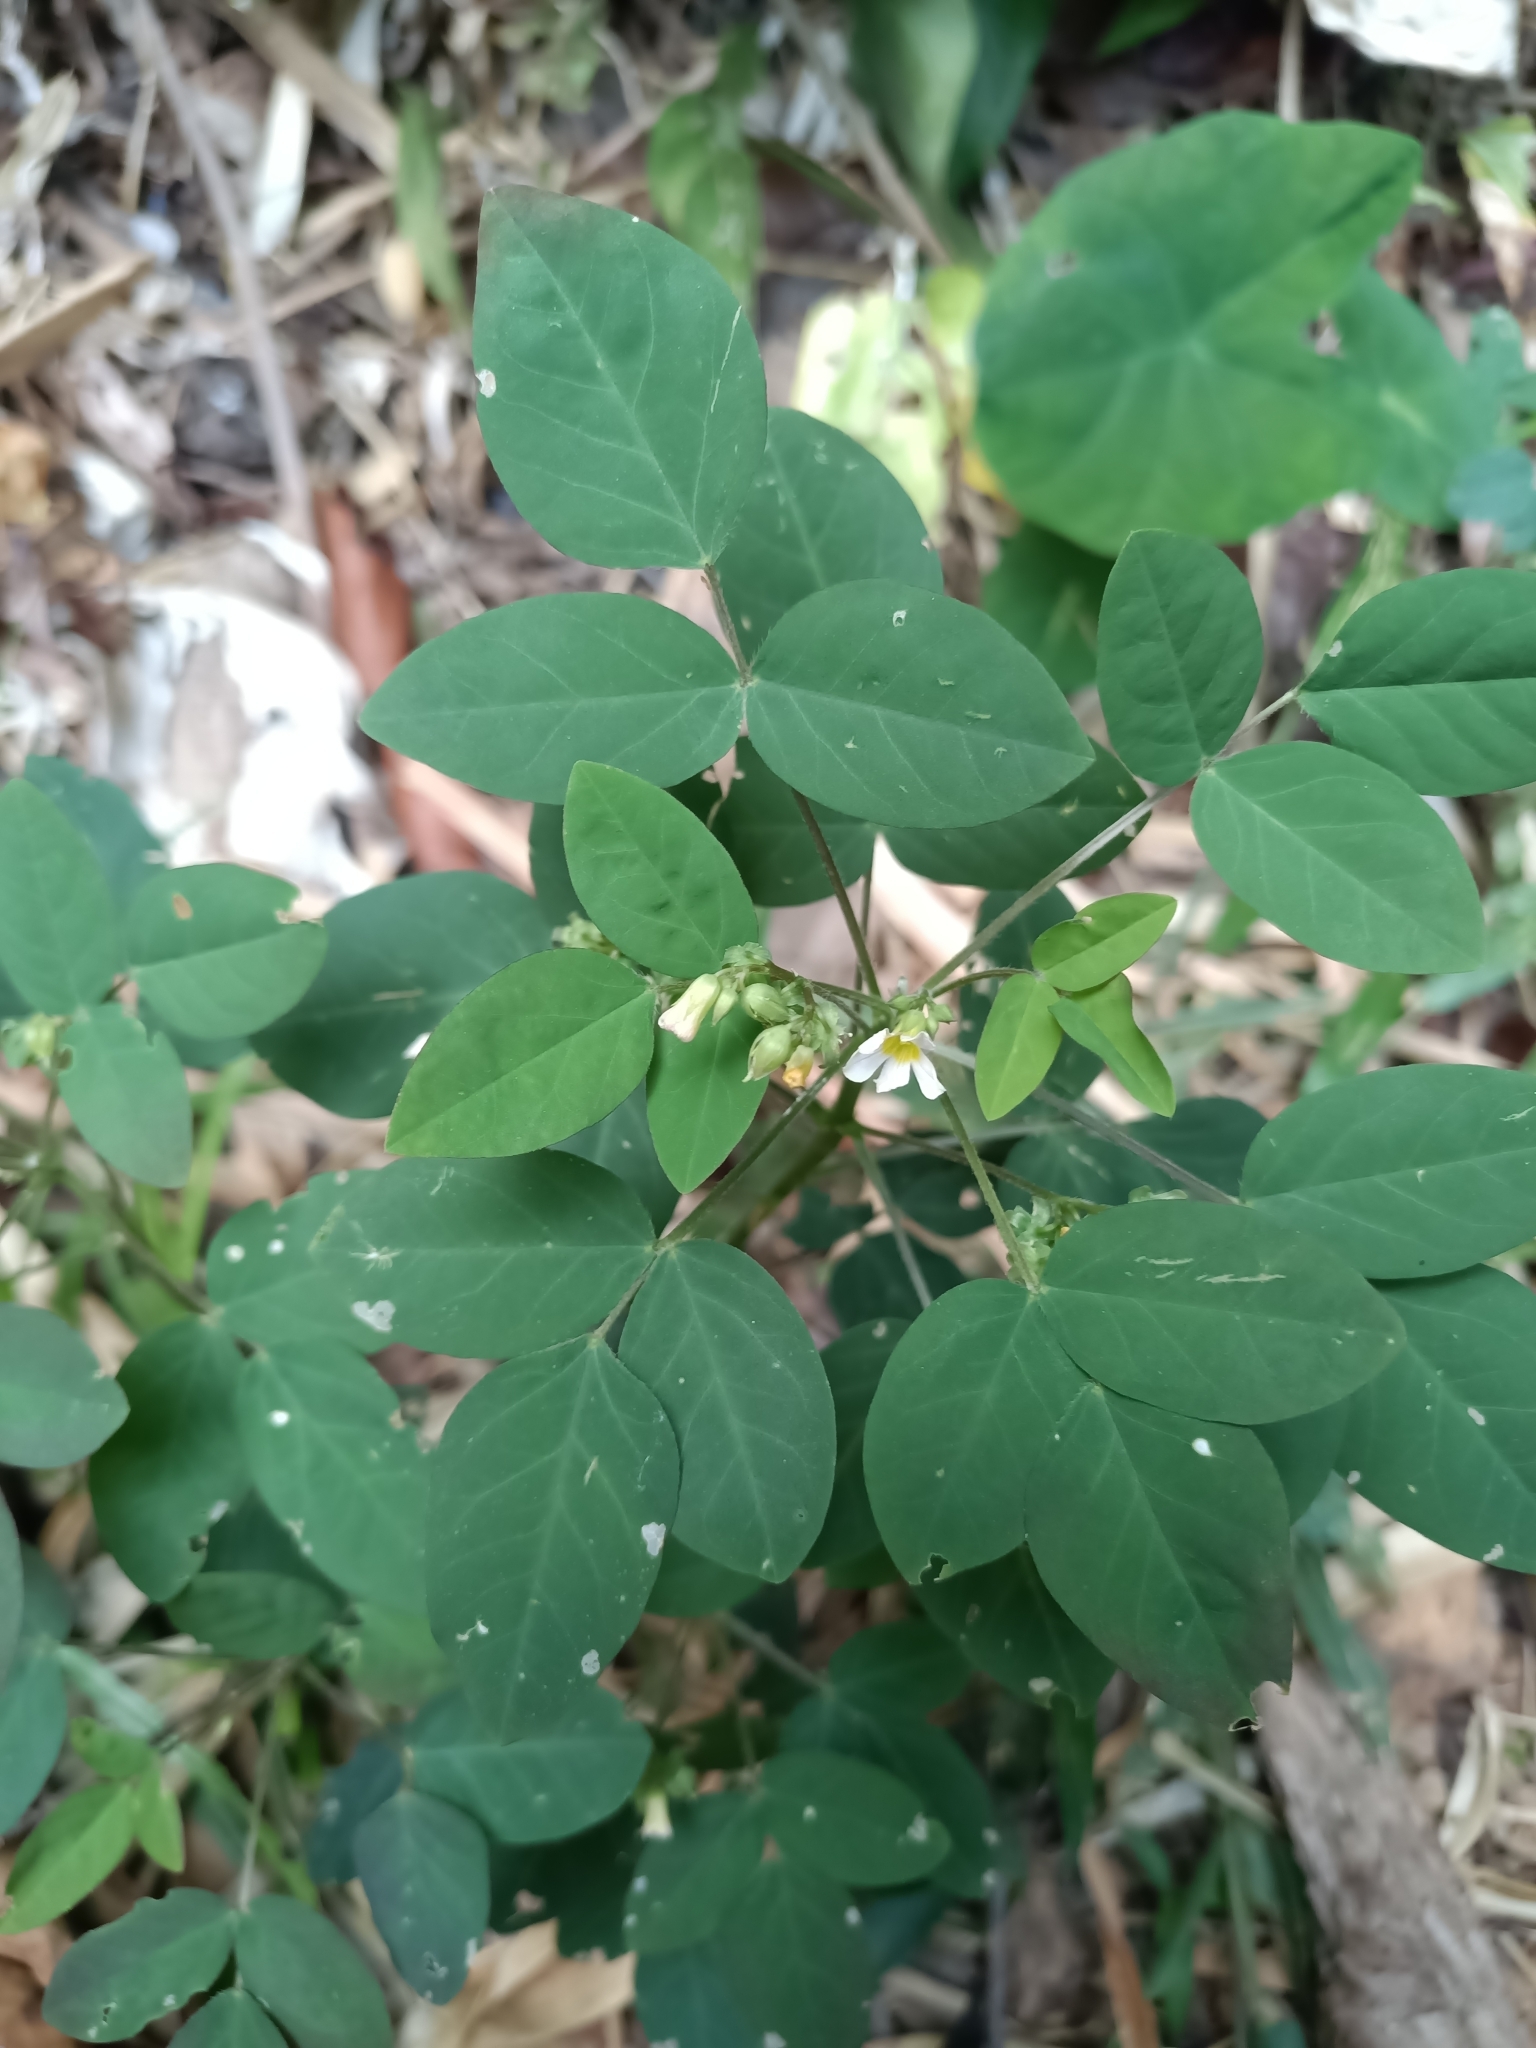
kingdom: Plantae
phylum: Tracheophyta
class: Magnoliopsida
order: Oxalidales
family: Oxalidaceae
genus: Oxalis
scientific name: Oxalis barrelieri
